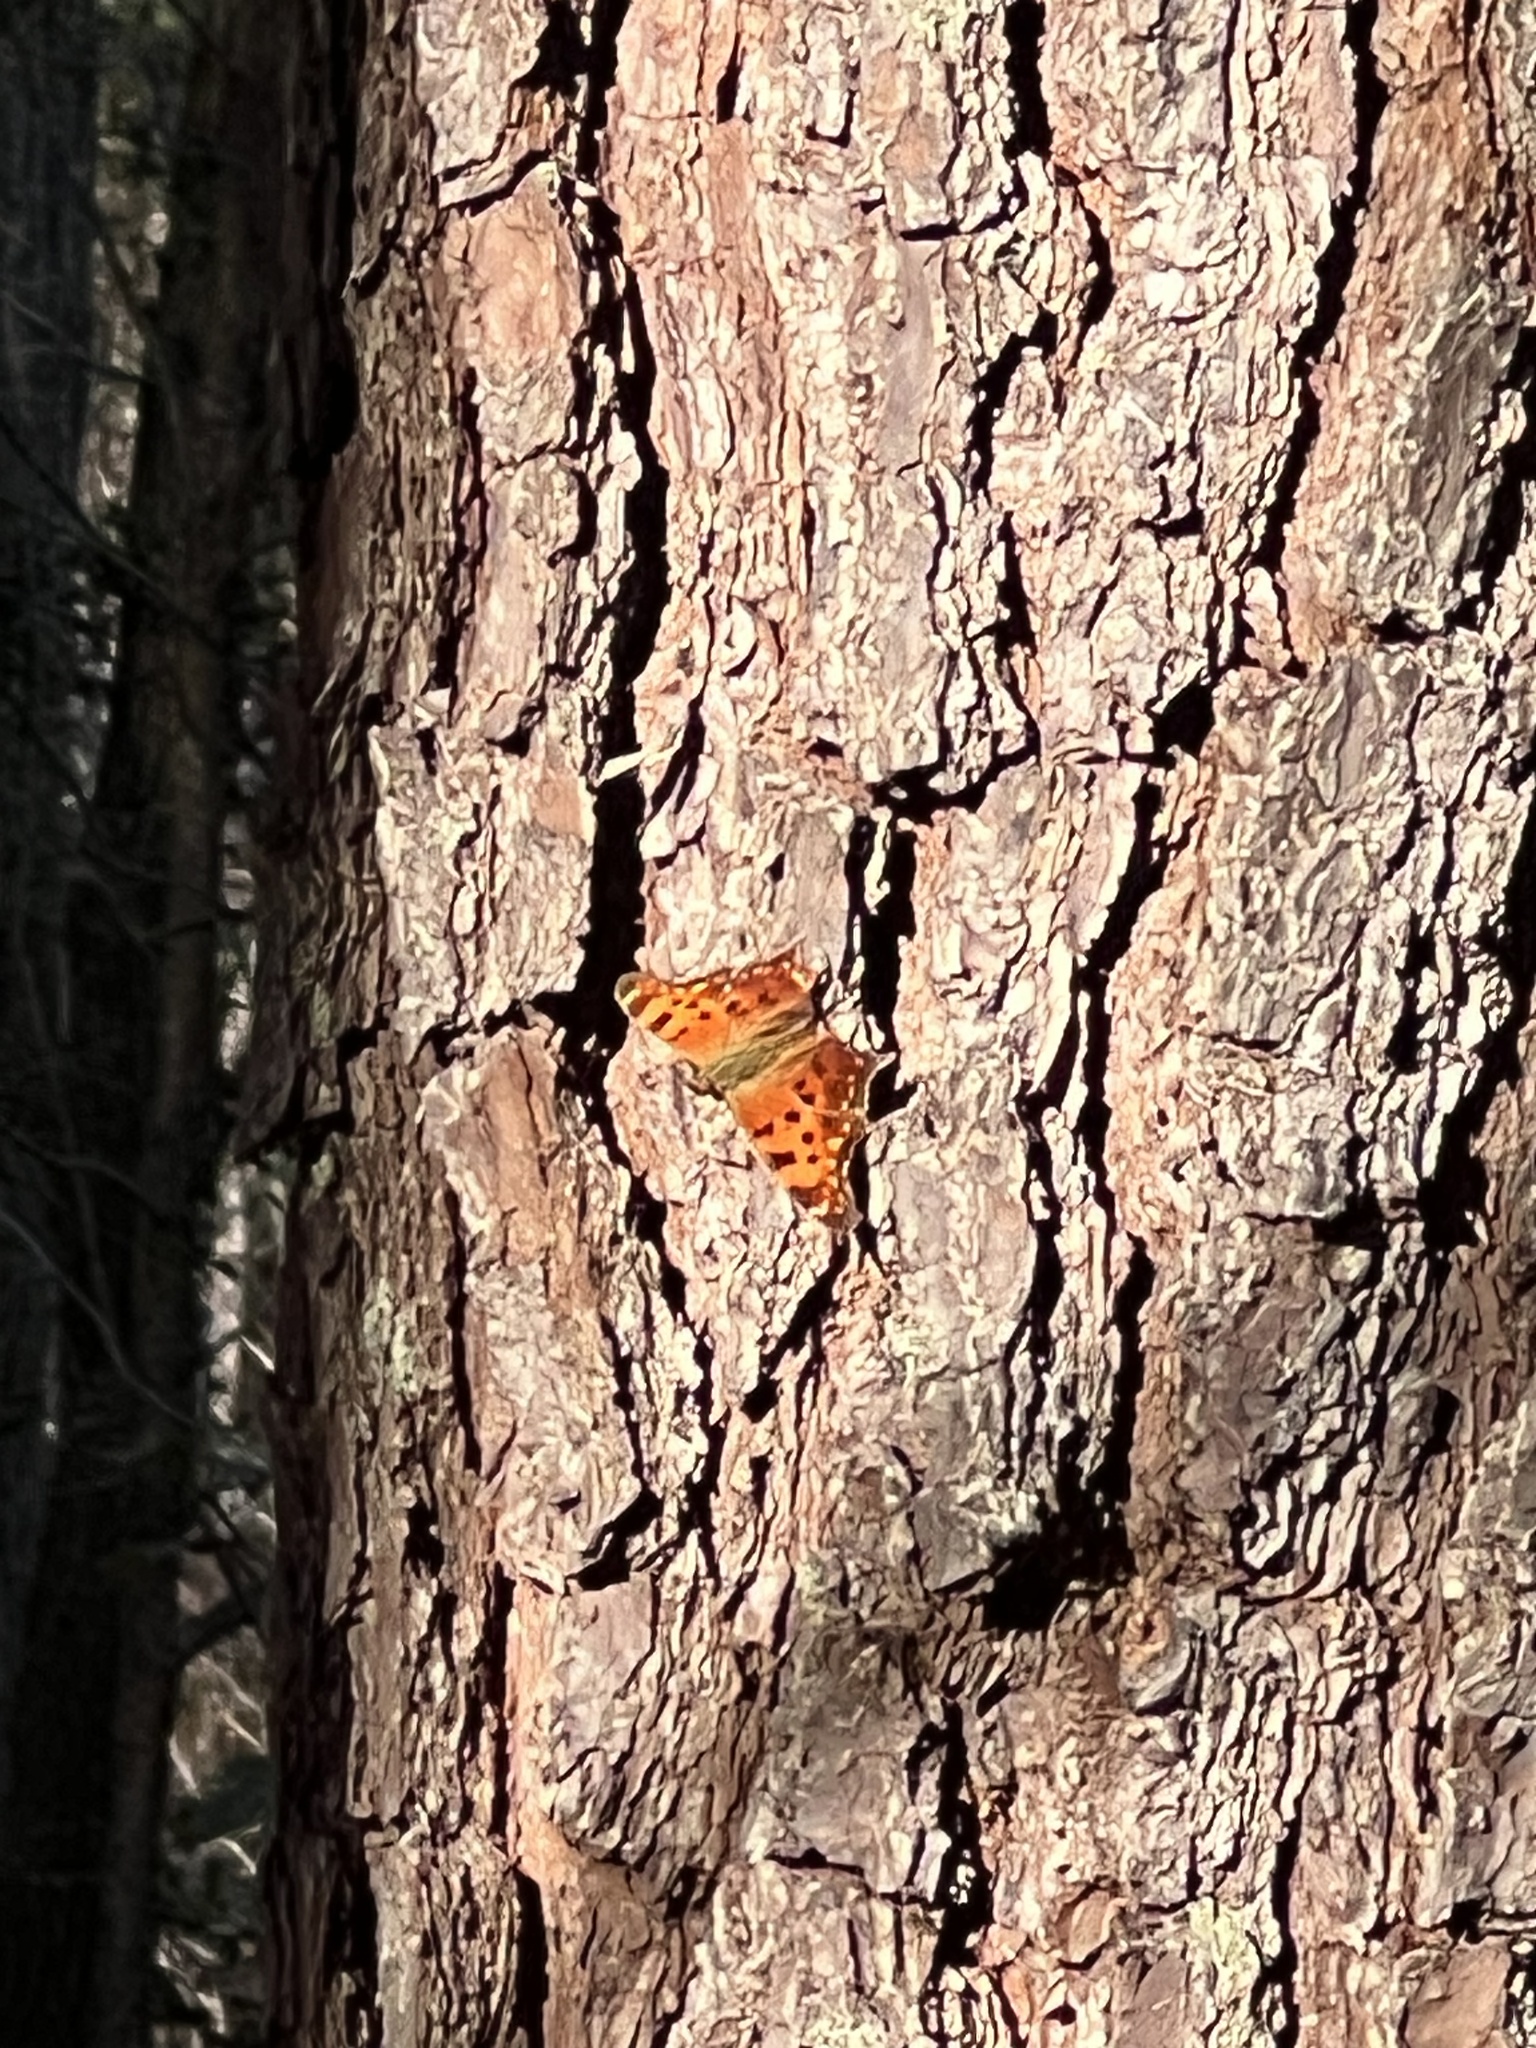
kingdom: Animalia
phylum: Arthropoda
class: Insecta
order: Lepidoptera
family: Nymphalidae
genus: Polygonia
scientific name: Polygonia comma
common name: Eastern comma
